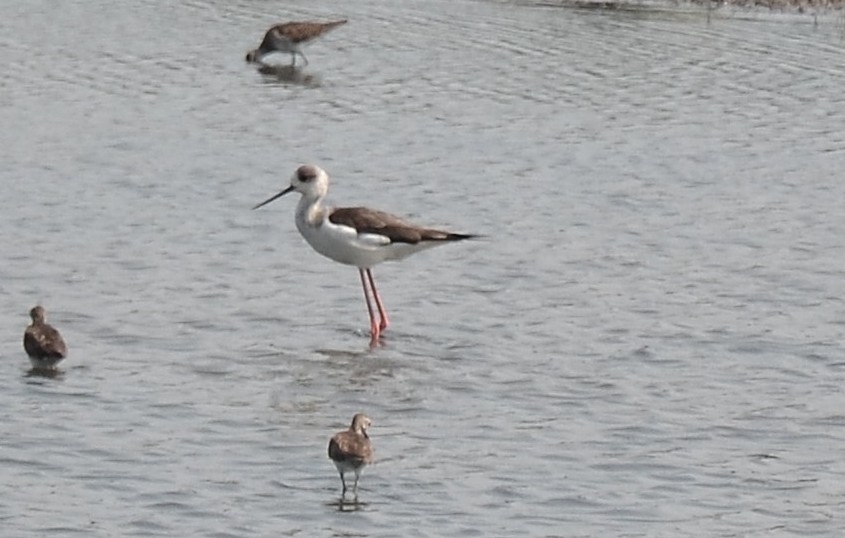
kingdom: Animalia
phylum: Chordata
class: Aves
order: Charadriiformes
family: Recurvirostridae
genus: Himantopus
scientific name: Himantopus himantopus
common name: Black-winged stilt
